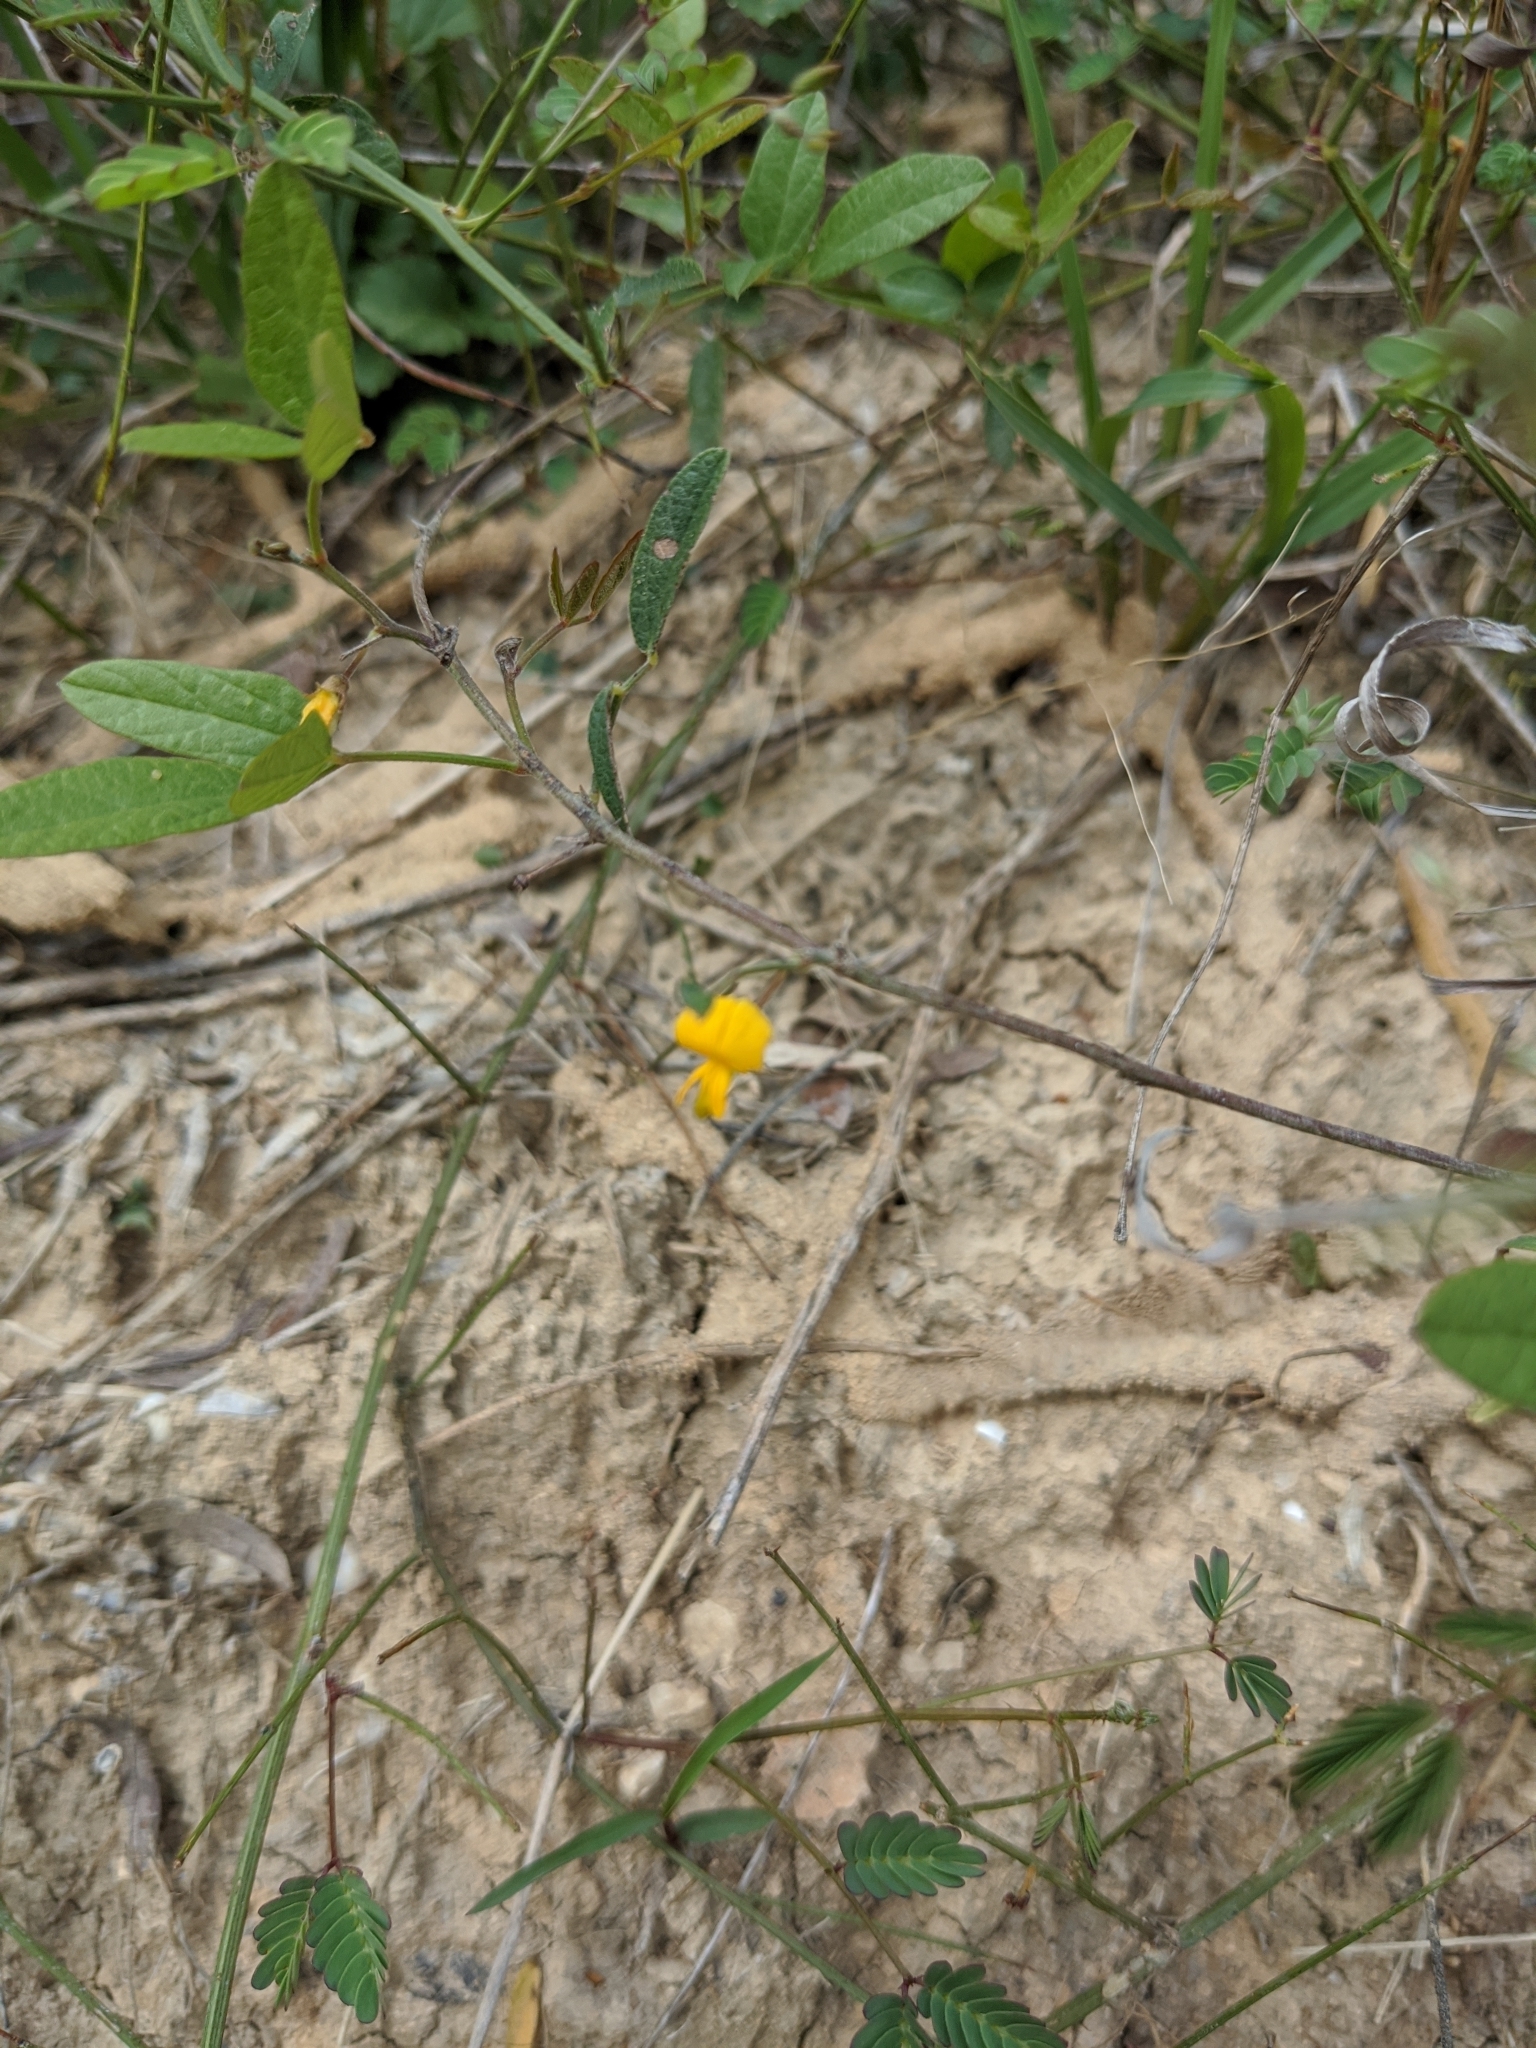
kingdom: Plantae
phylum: Tracheophyta
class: Magnoliopsida
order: Fabales
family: Fabaceae
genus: Rhynchosia
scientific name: Rhynchosia senna
